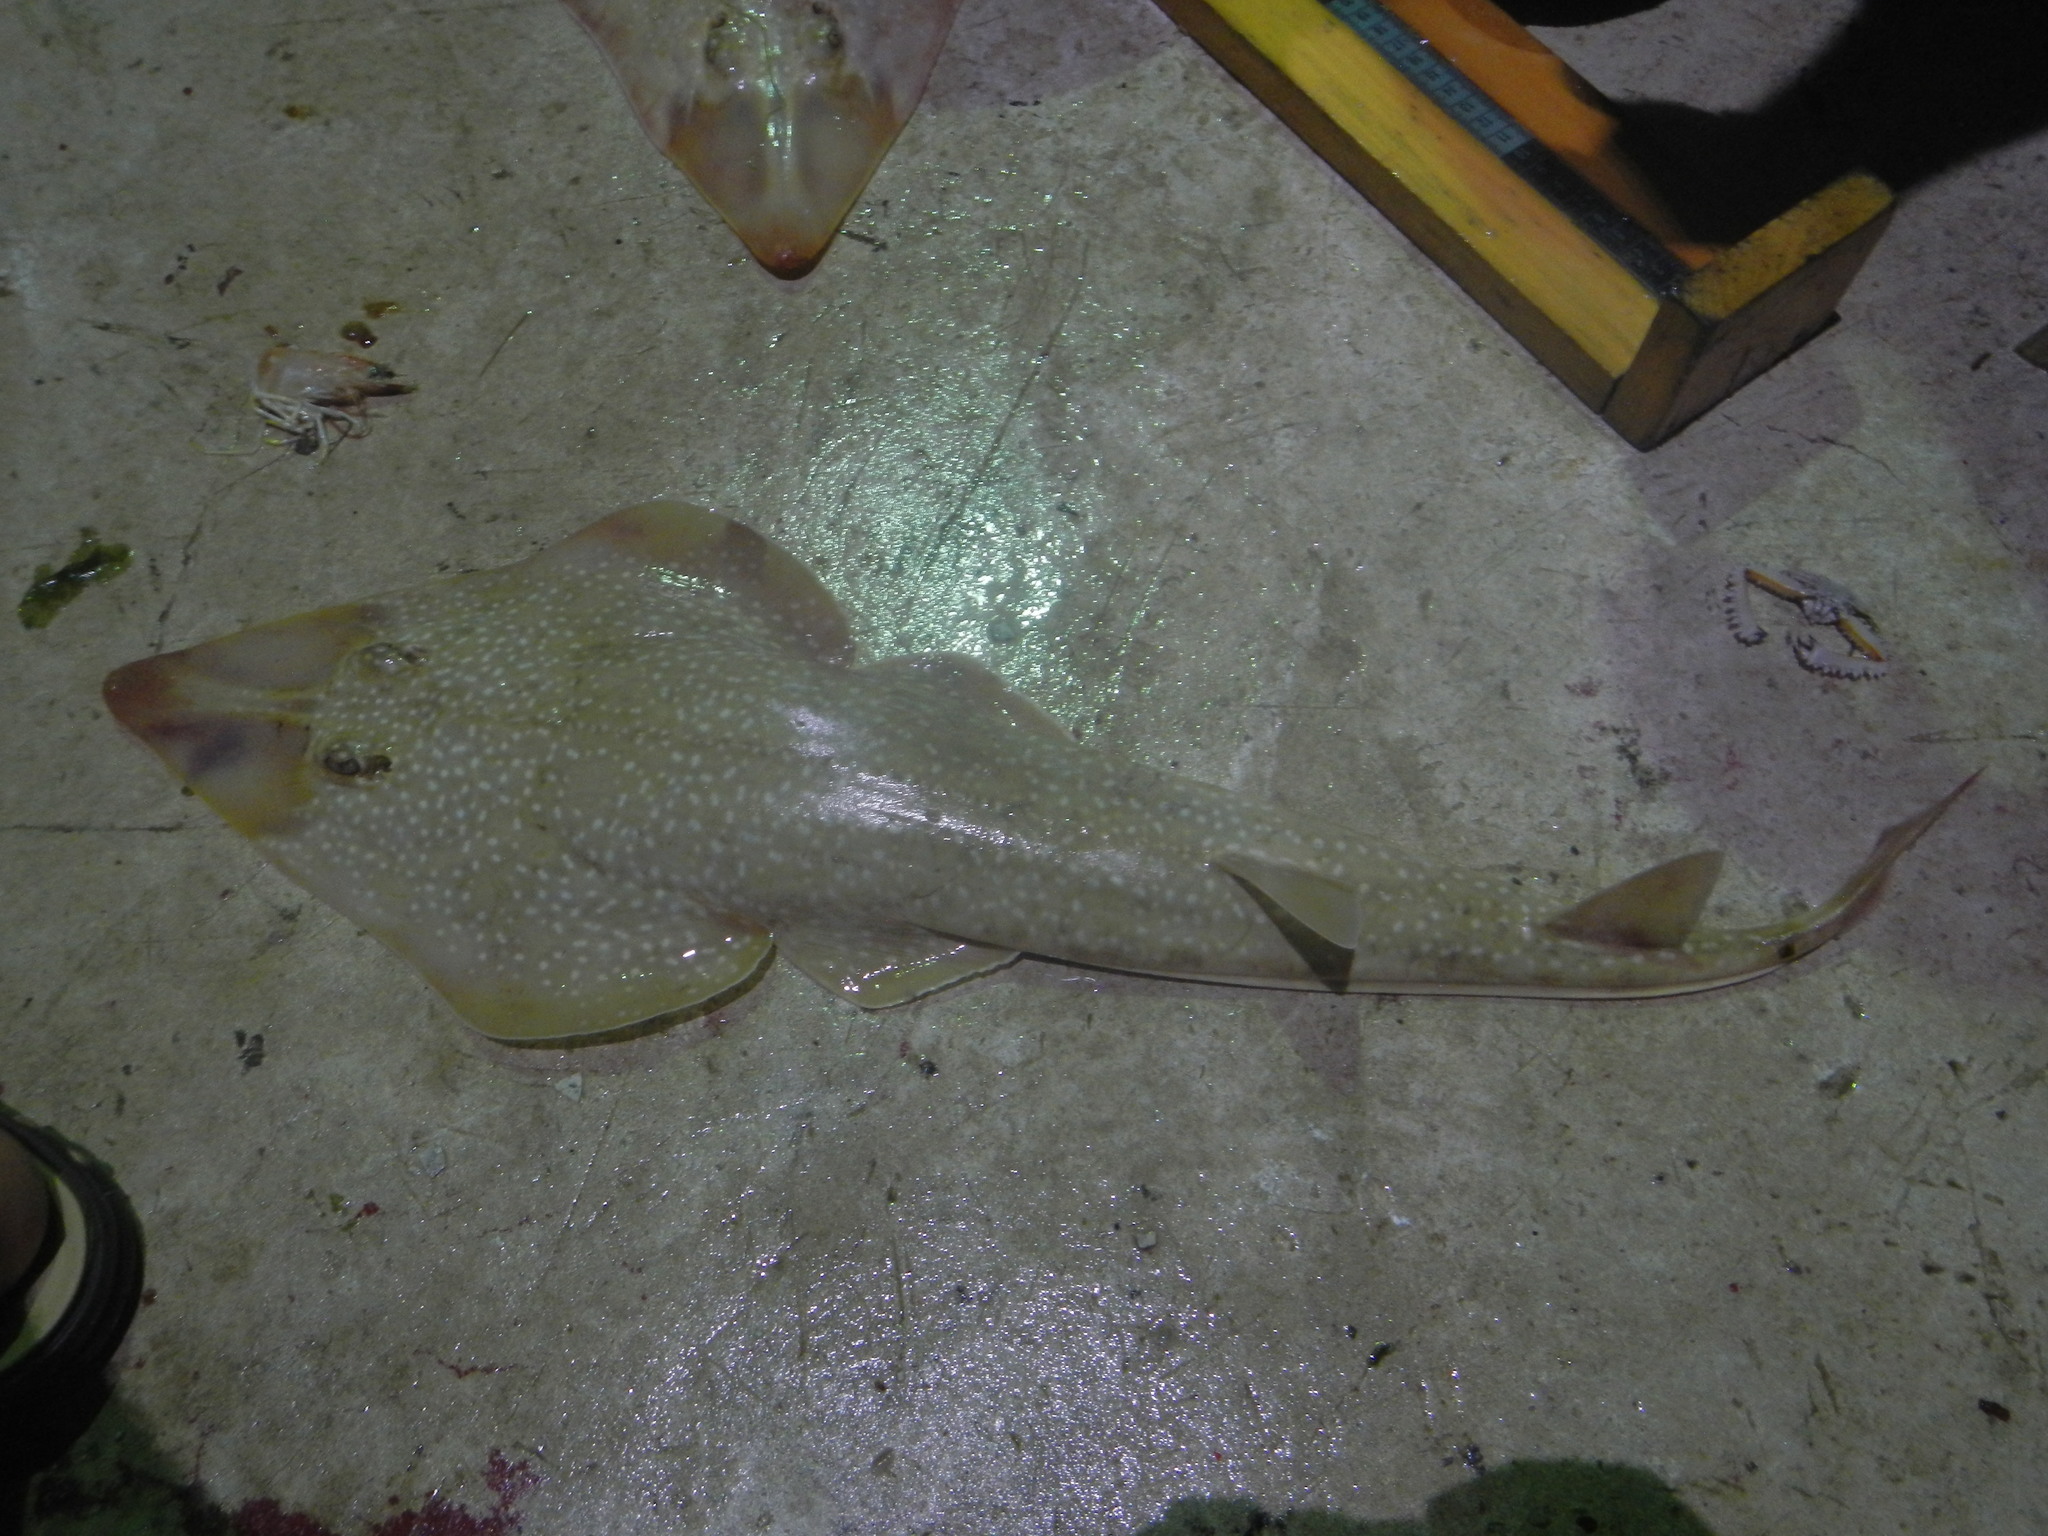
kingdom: Animalia
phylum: Chordata
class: Elasmobranchii
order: Rhinopristiformes
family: Rhinobatidae
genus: Pseudobatos
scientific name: Pseudobatos lentiginosus
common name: Atlantic guitarfish
